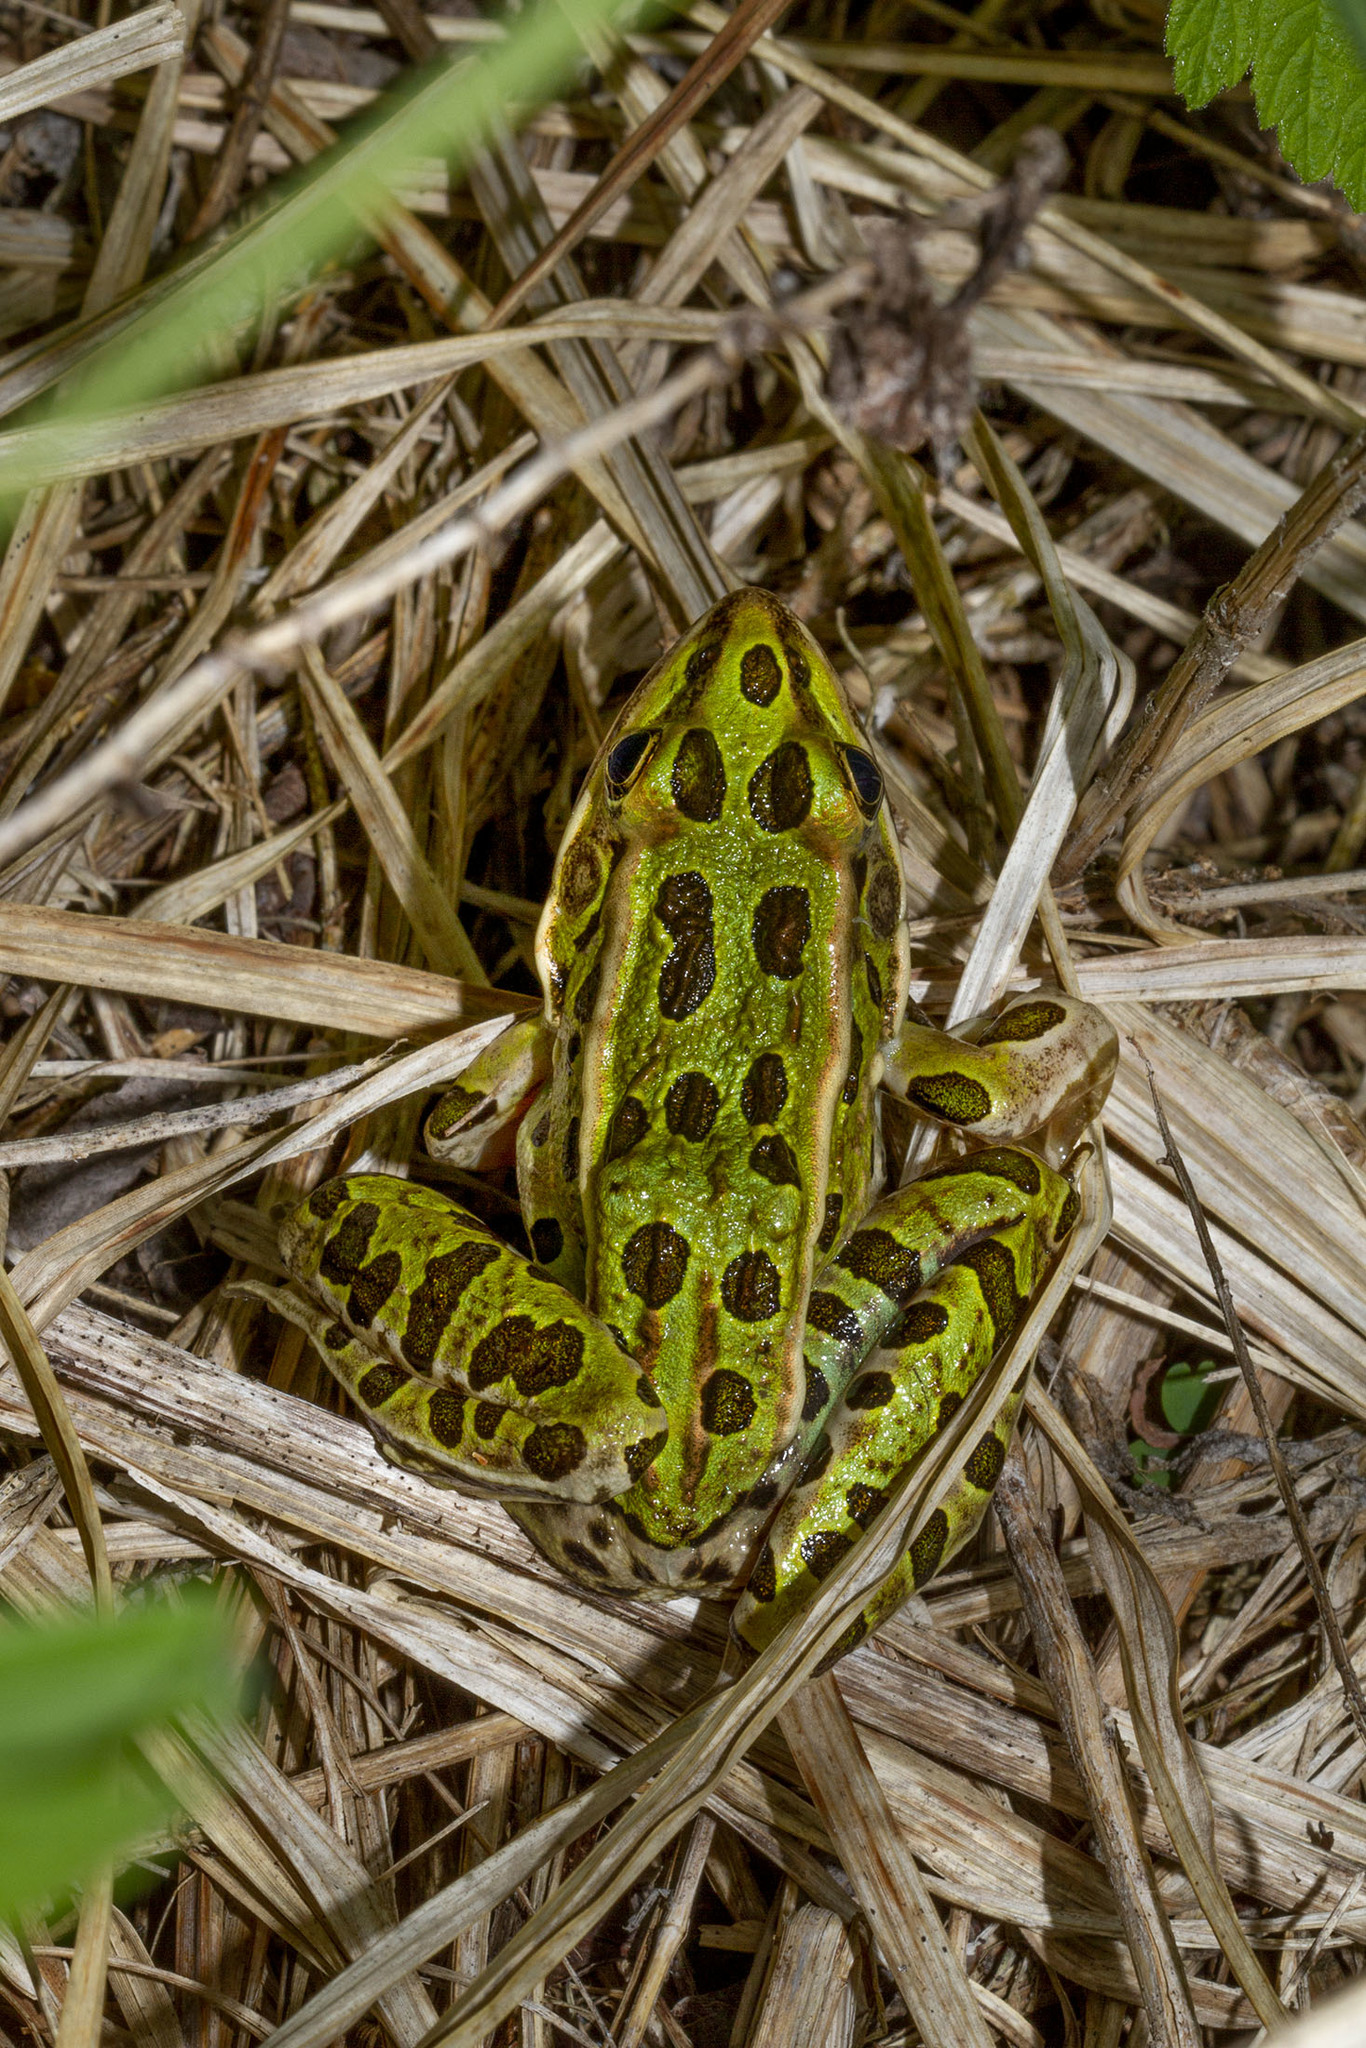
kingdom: Animalia
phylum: Chordata
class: Amphibia
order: Anura
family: Ranidae
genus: Lithobates
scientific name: Lithobates pipiens
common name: Northern leopard frog
